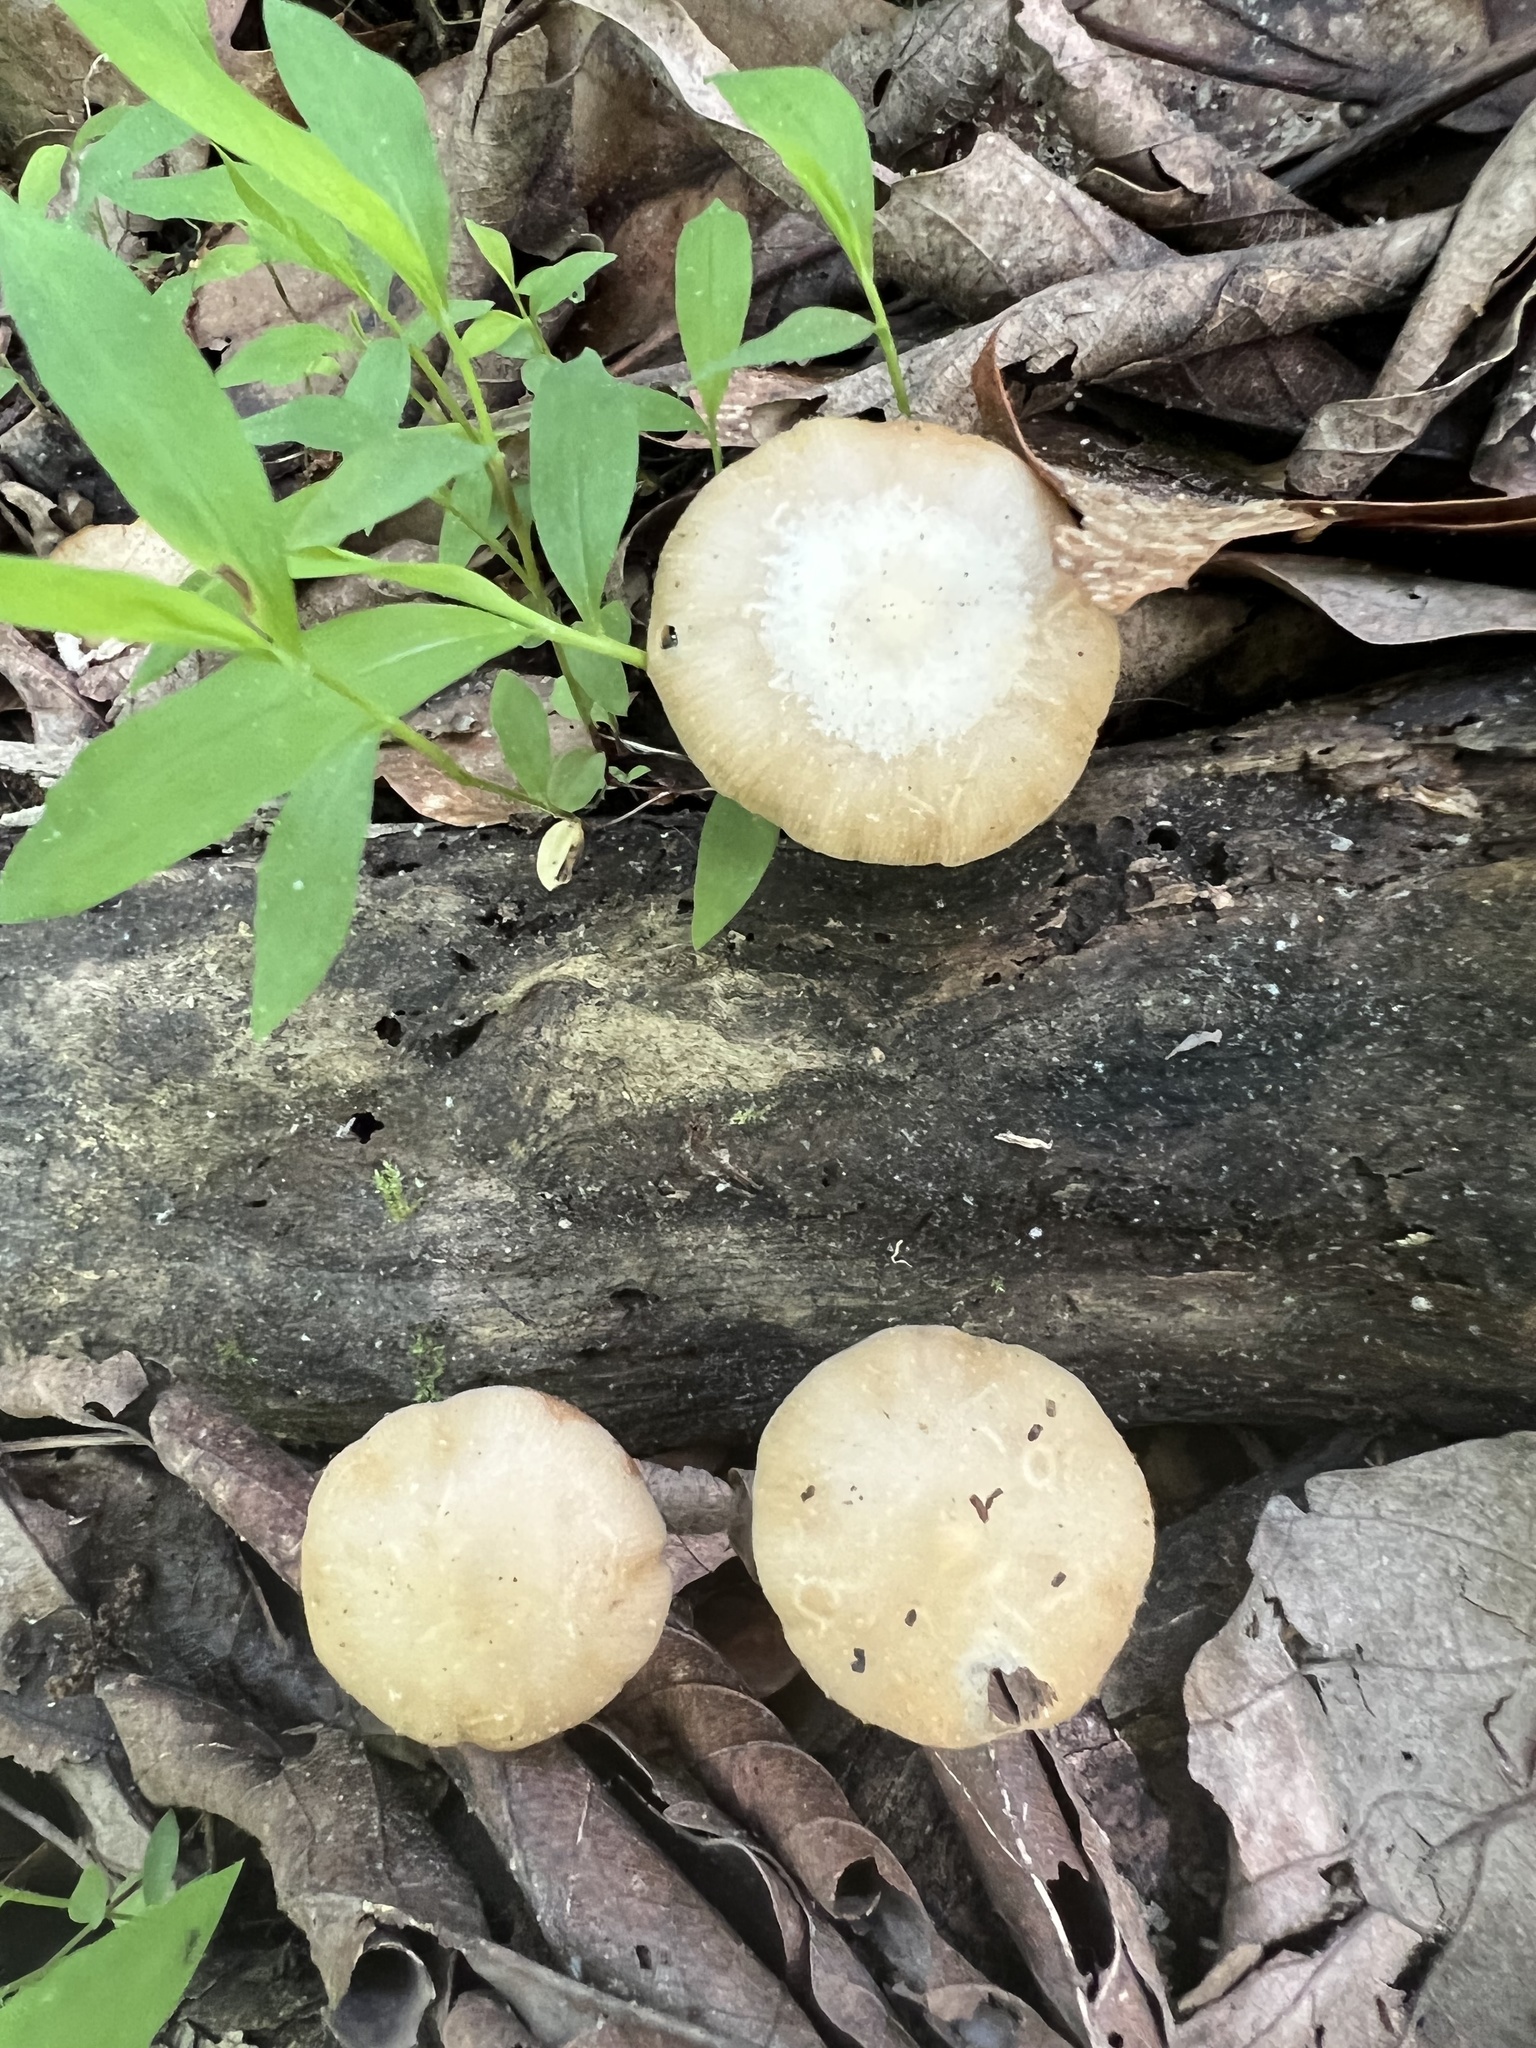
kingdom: Fungi
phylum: Basidiomycota
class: Agaricomycetes
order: Agaricales
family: Strophariaceae
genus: Kuehneromyces
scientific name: Kuehneromyces marginellus
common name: Sheathed woodtuft
